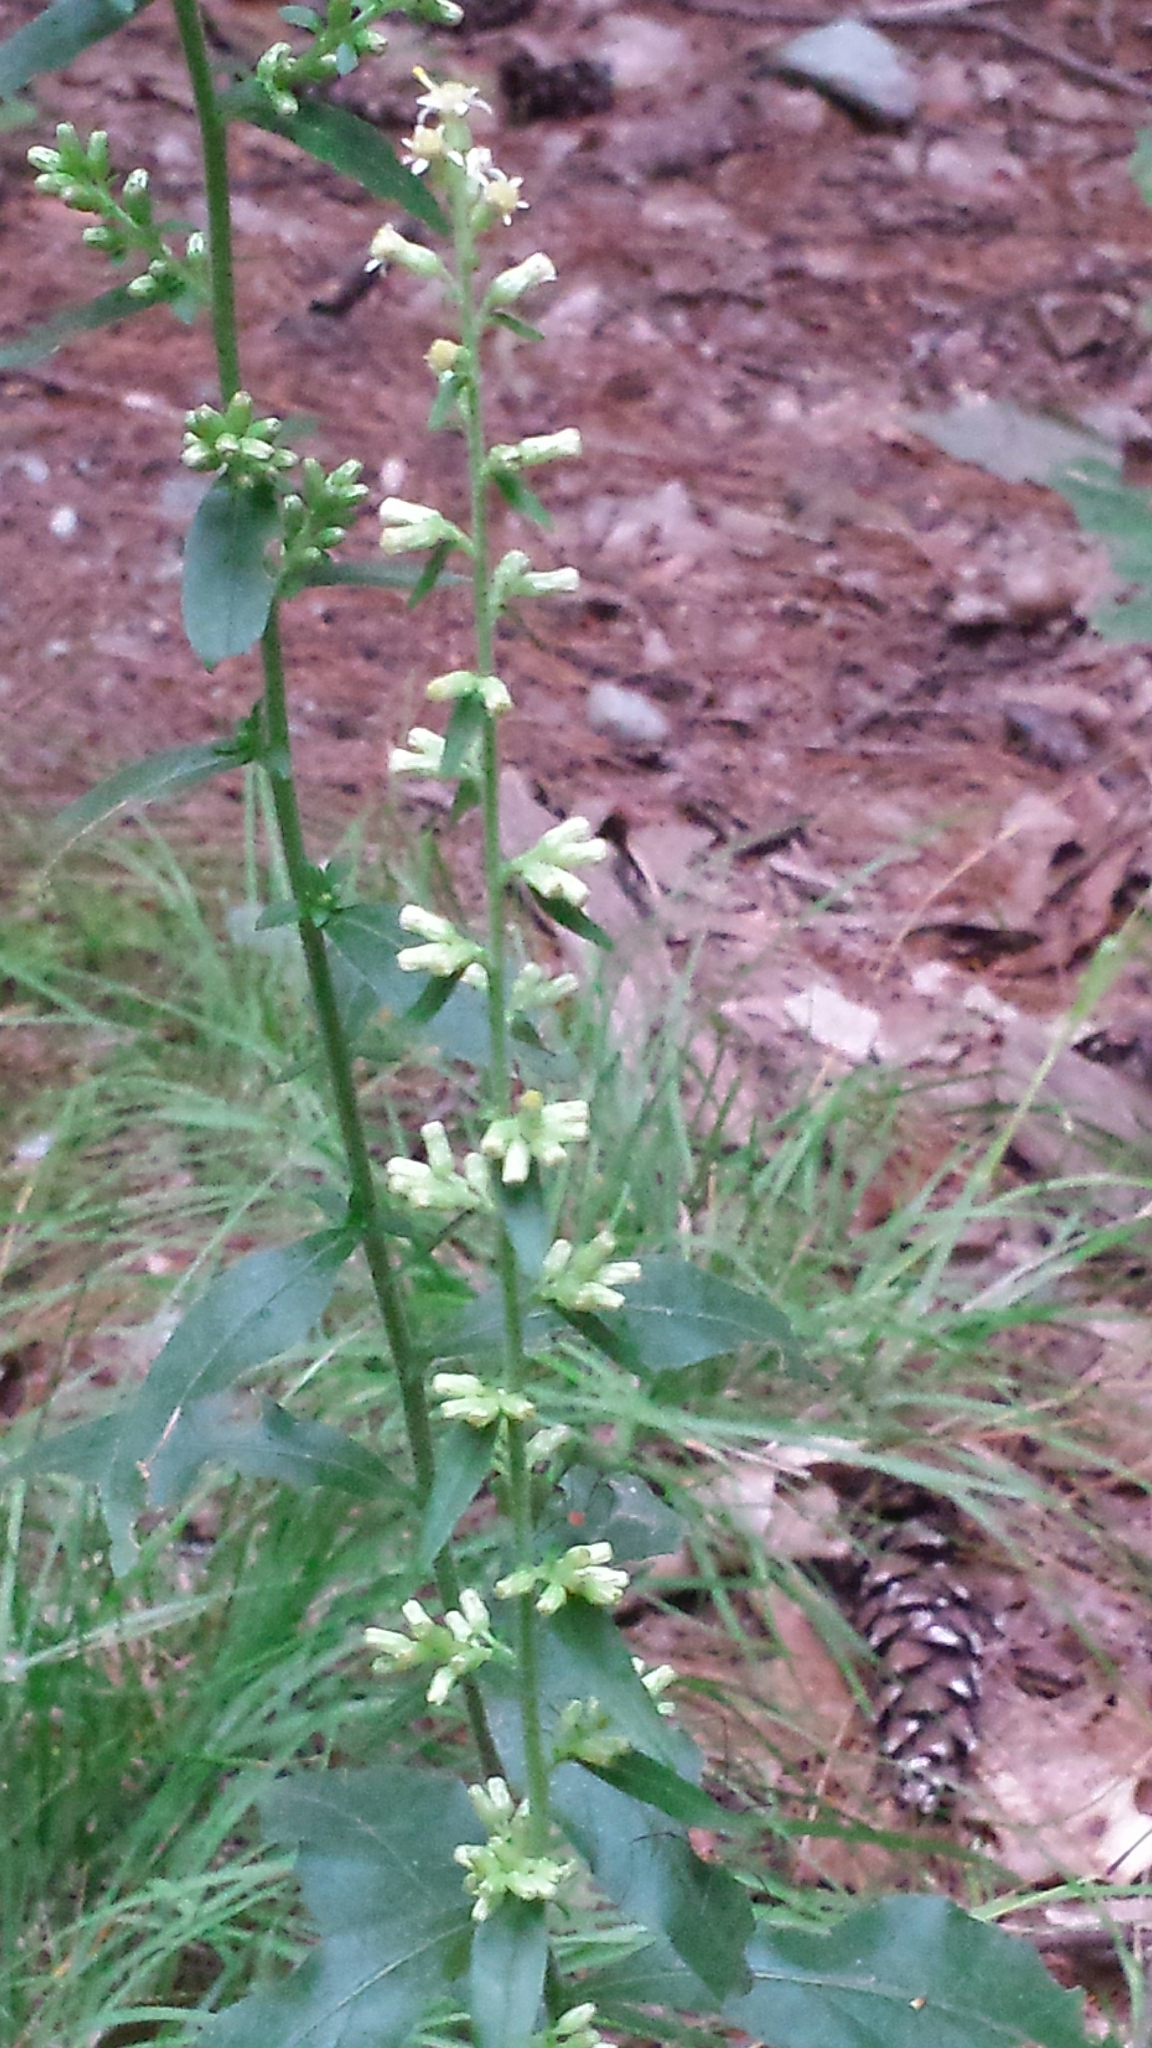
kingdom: Plantae
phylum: Tracheophyta
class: Magnoliopsida
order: Asterales
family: Asteraceae
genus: Solidago
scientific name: Solidago bicolor
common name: Silverrod
